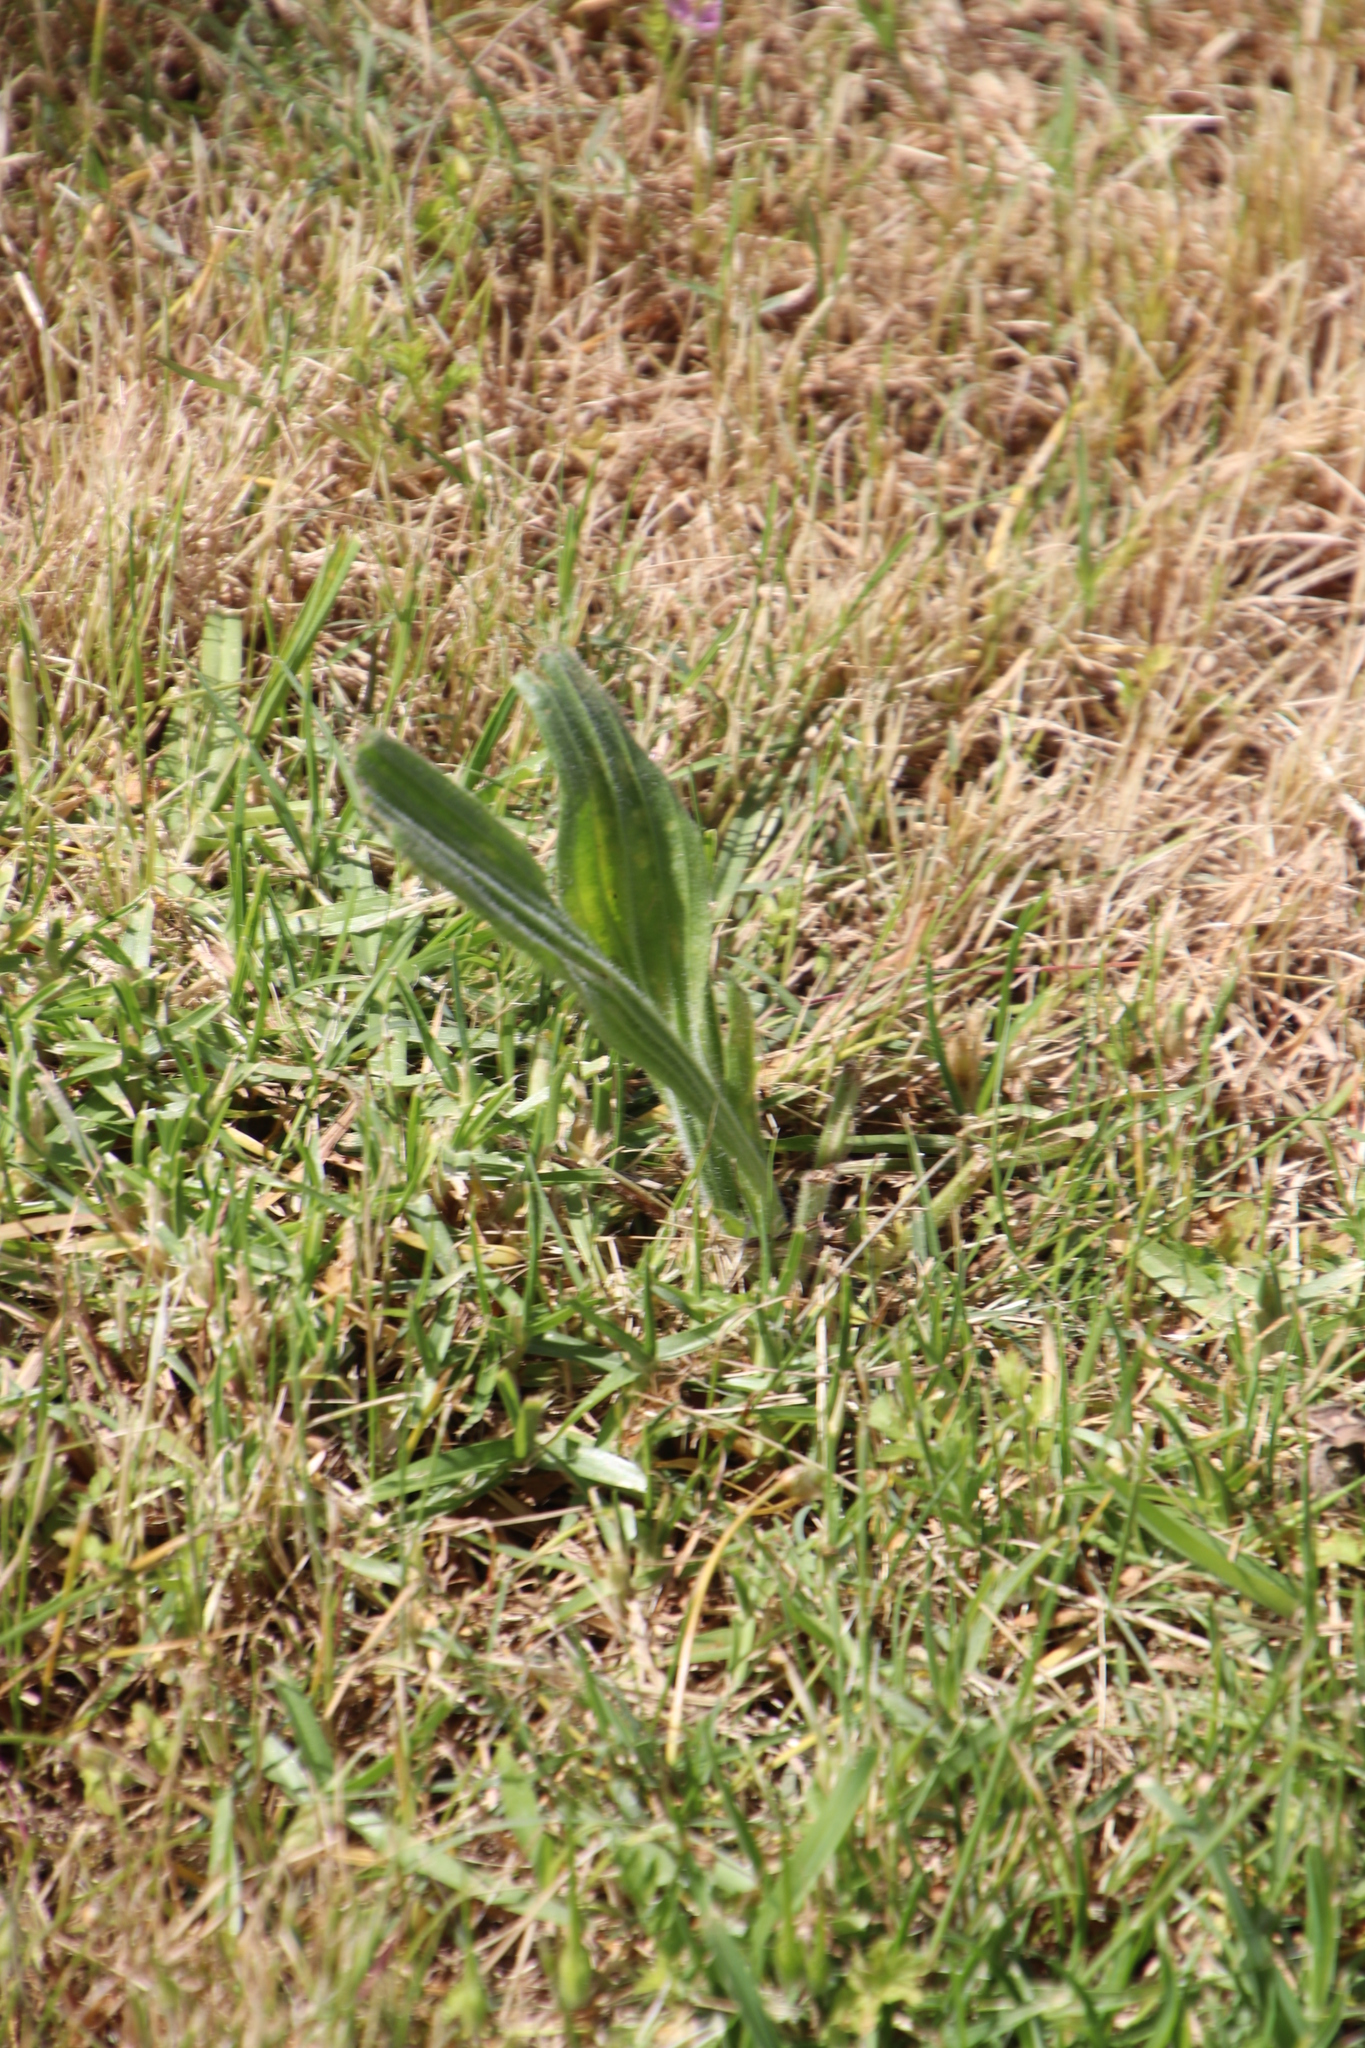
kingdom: Plantae
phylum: Tracheophyta
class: Magnoliopsida
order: Lamiales
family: Plantaginaceae
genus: Plantago
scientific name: Plantago lanceolata
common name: Ribwort plantain
